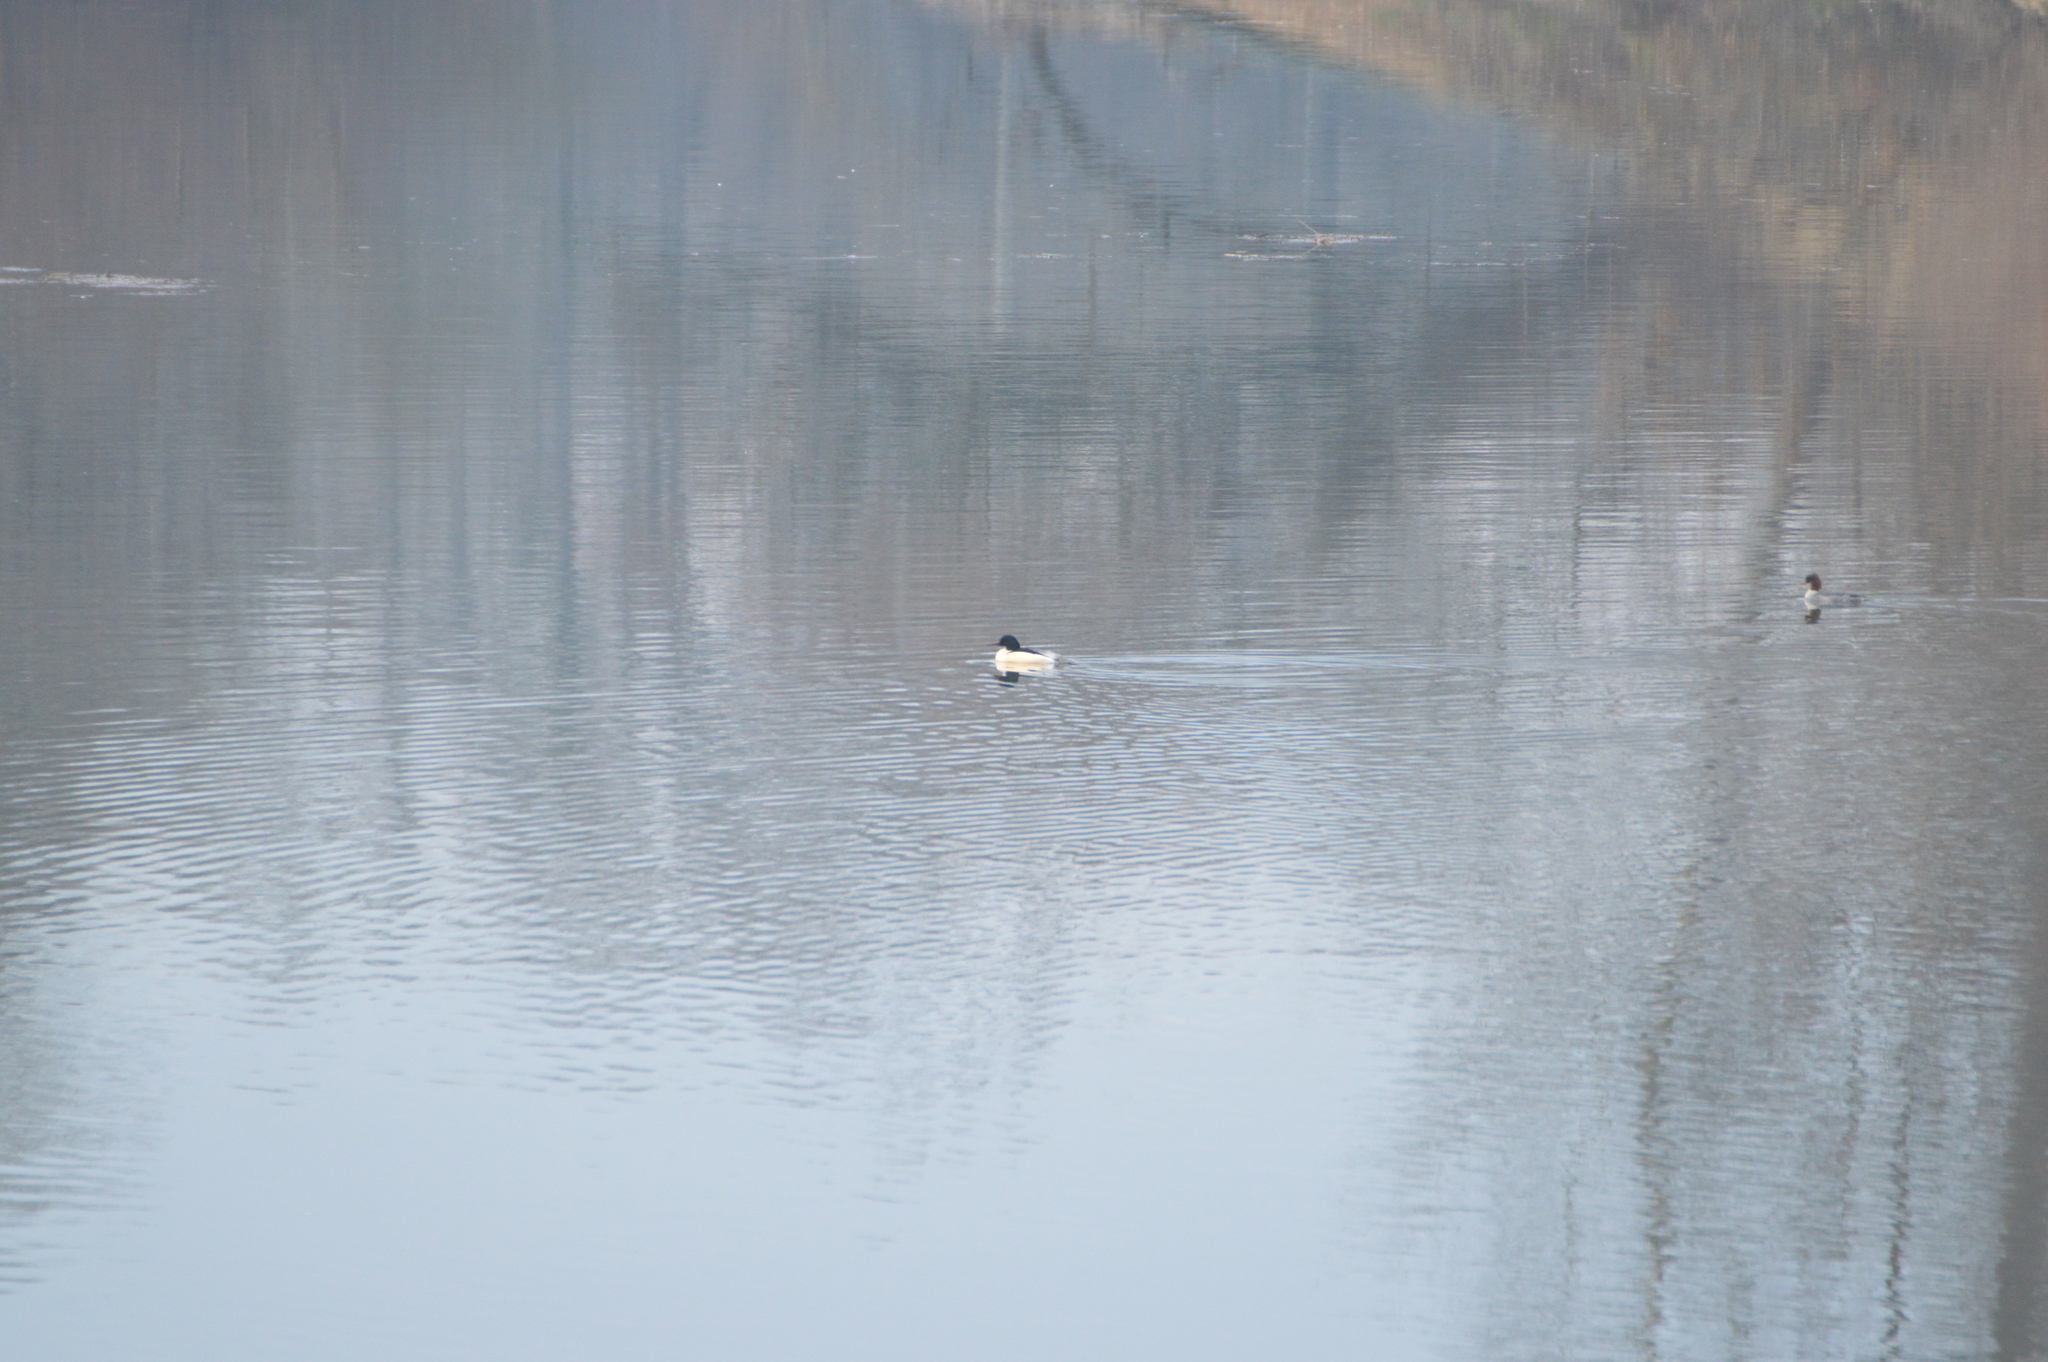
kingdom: Animalia
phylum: Chordata
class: Aves
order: Anseriformes
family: Anatidae
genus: Mergus
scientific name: Mergus merganser
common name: Common merganser
